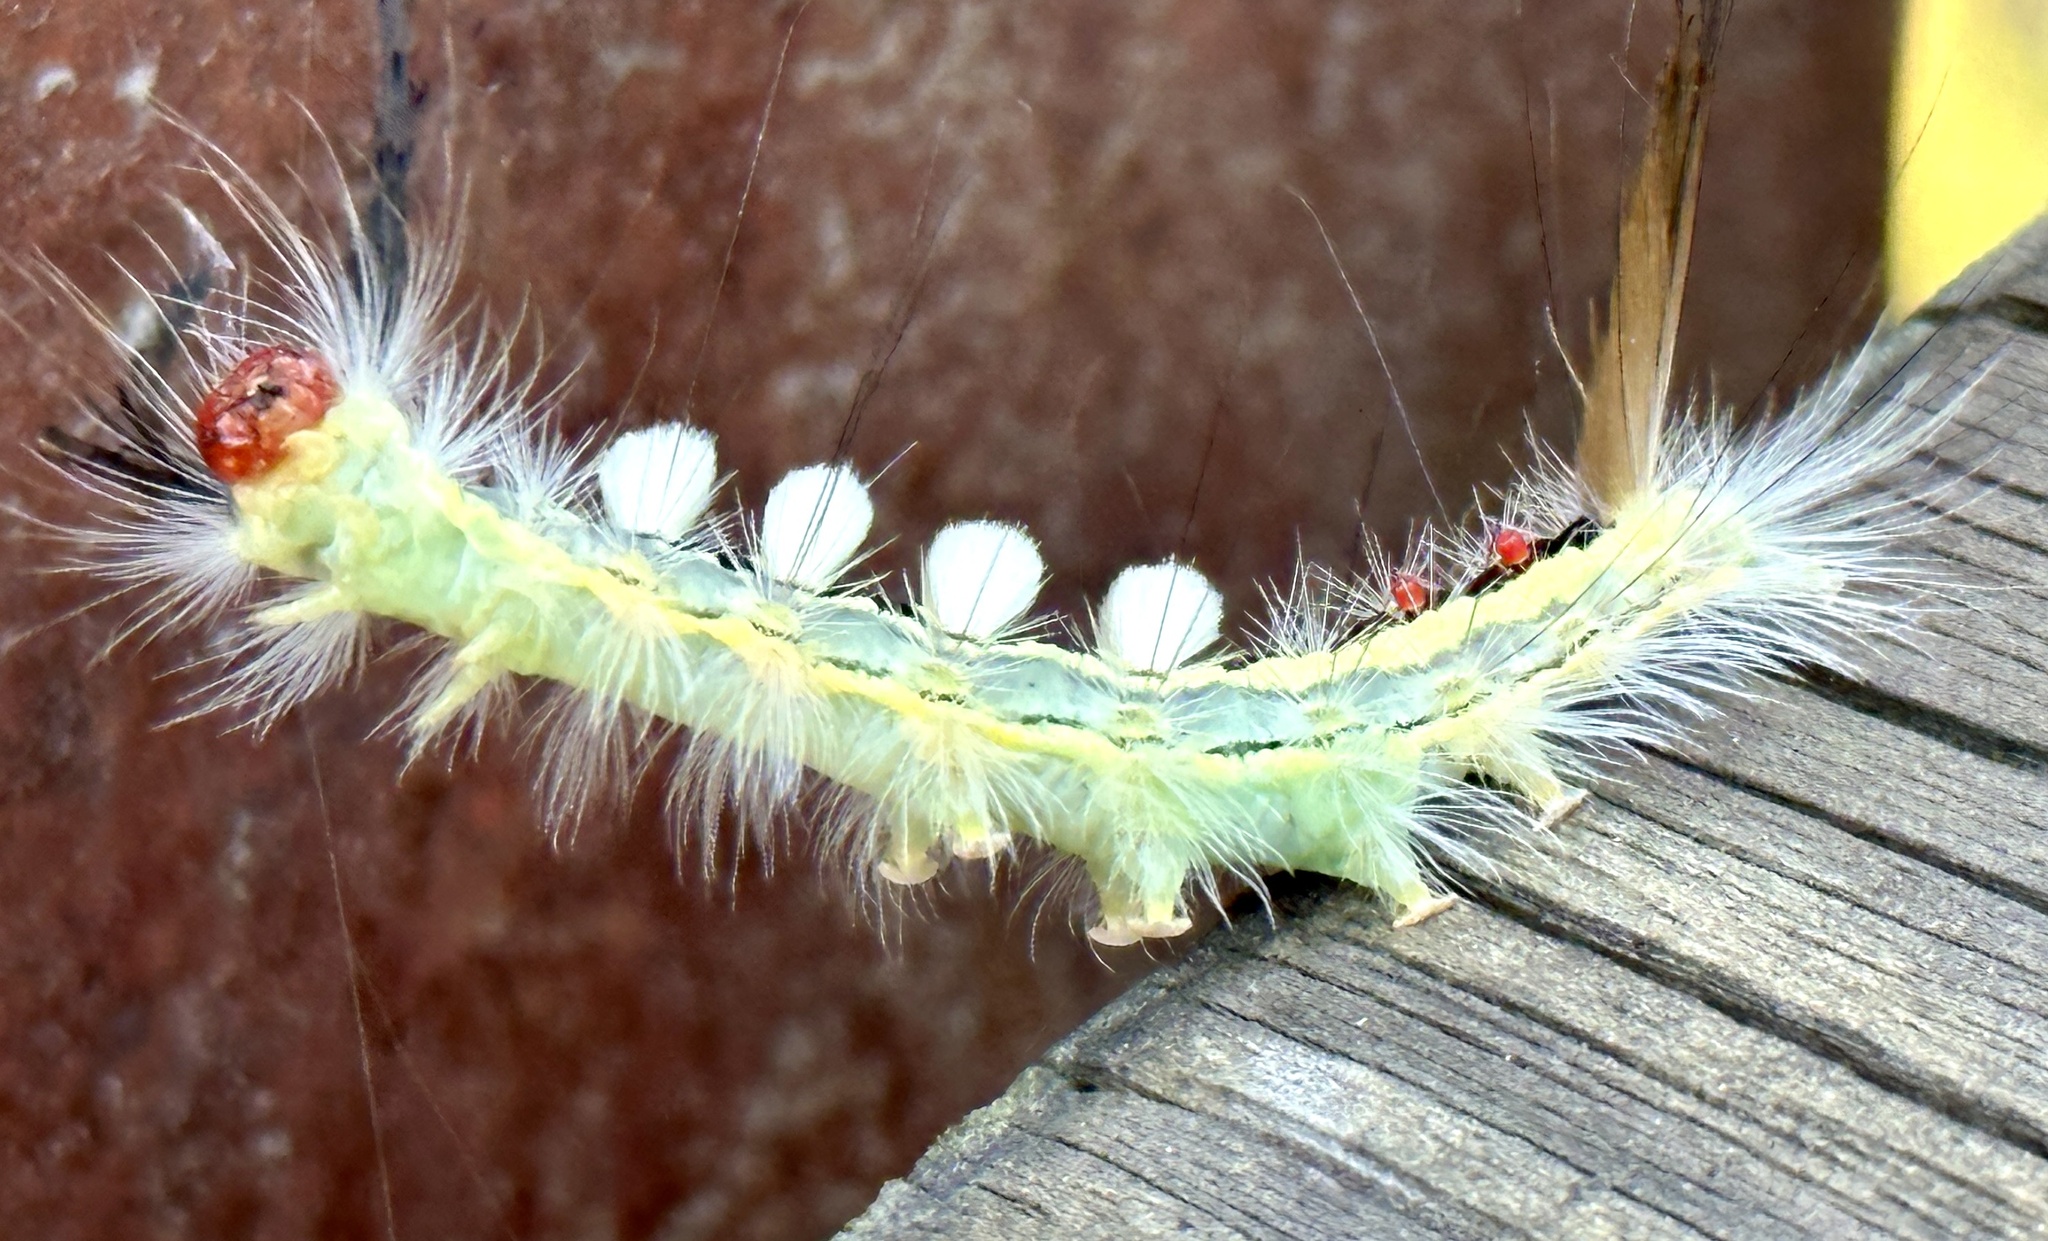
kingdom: Animalia
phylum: Arthropoda
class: Insecta
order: Lepidoptera
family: Erebidae
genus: Orgyia
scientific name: Orgyia leucostigma
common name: White-marked tussock moth
